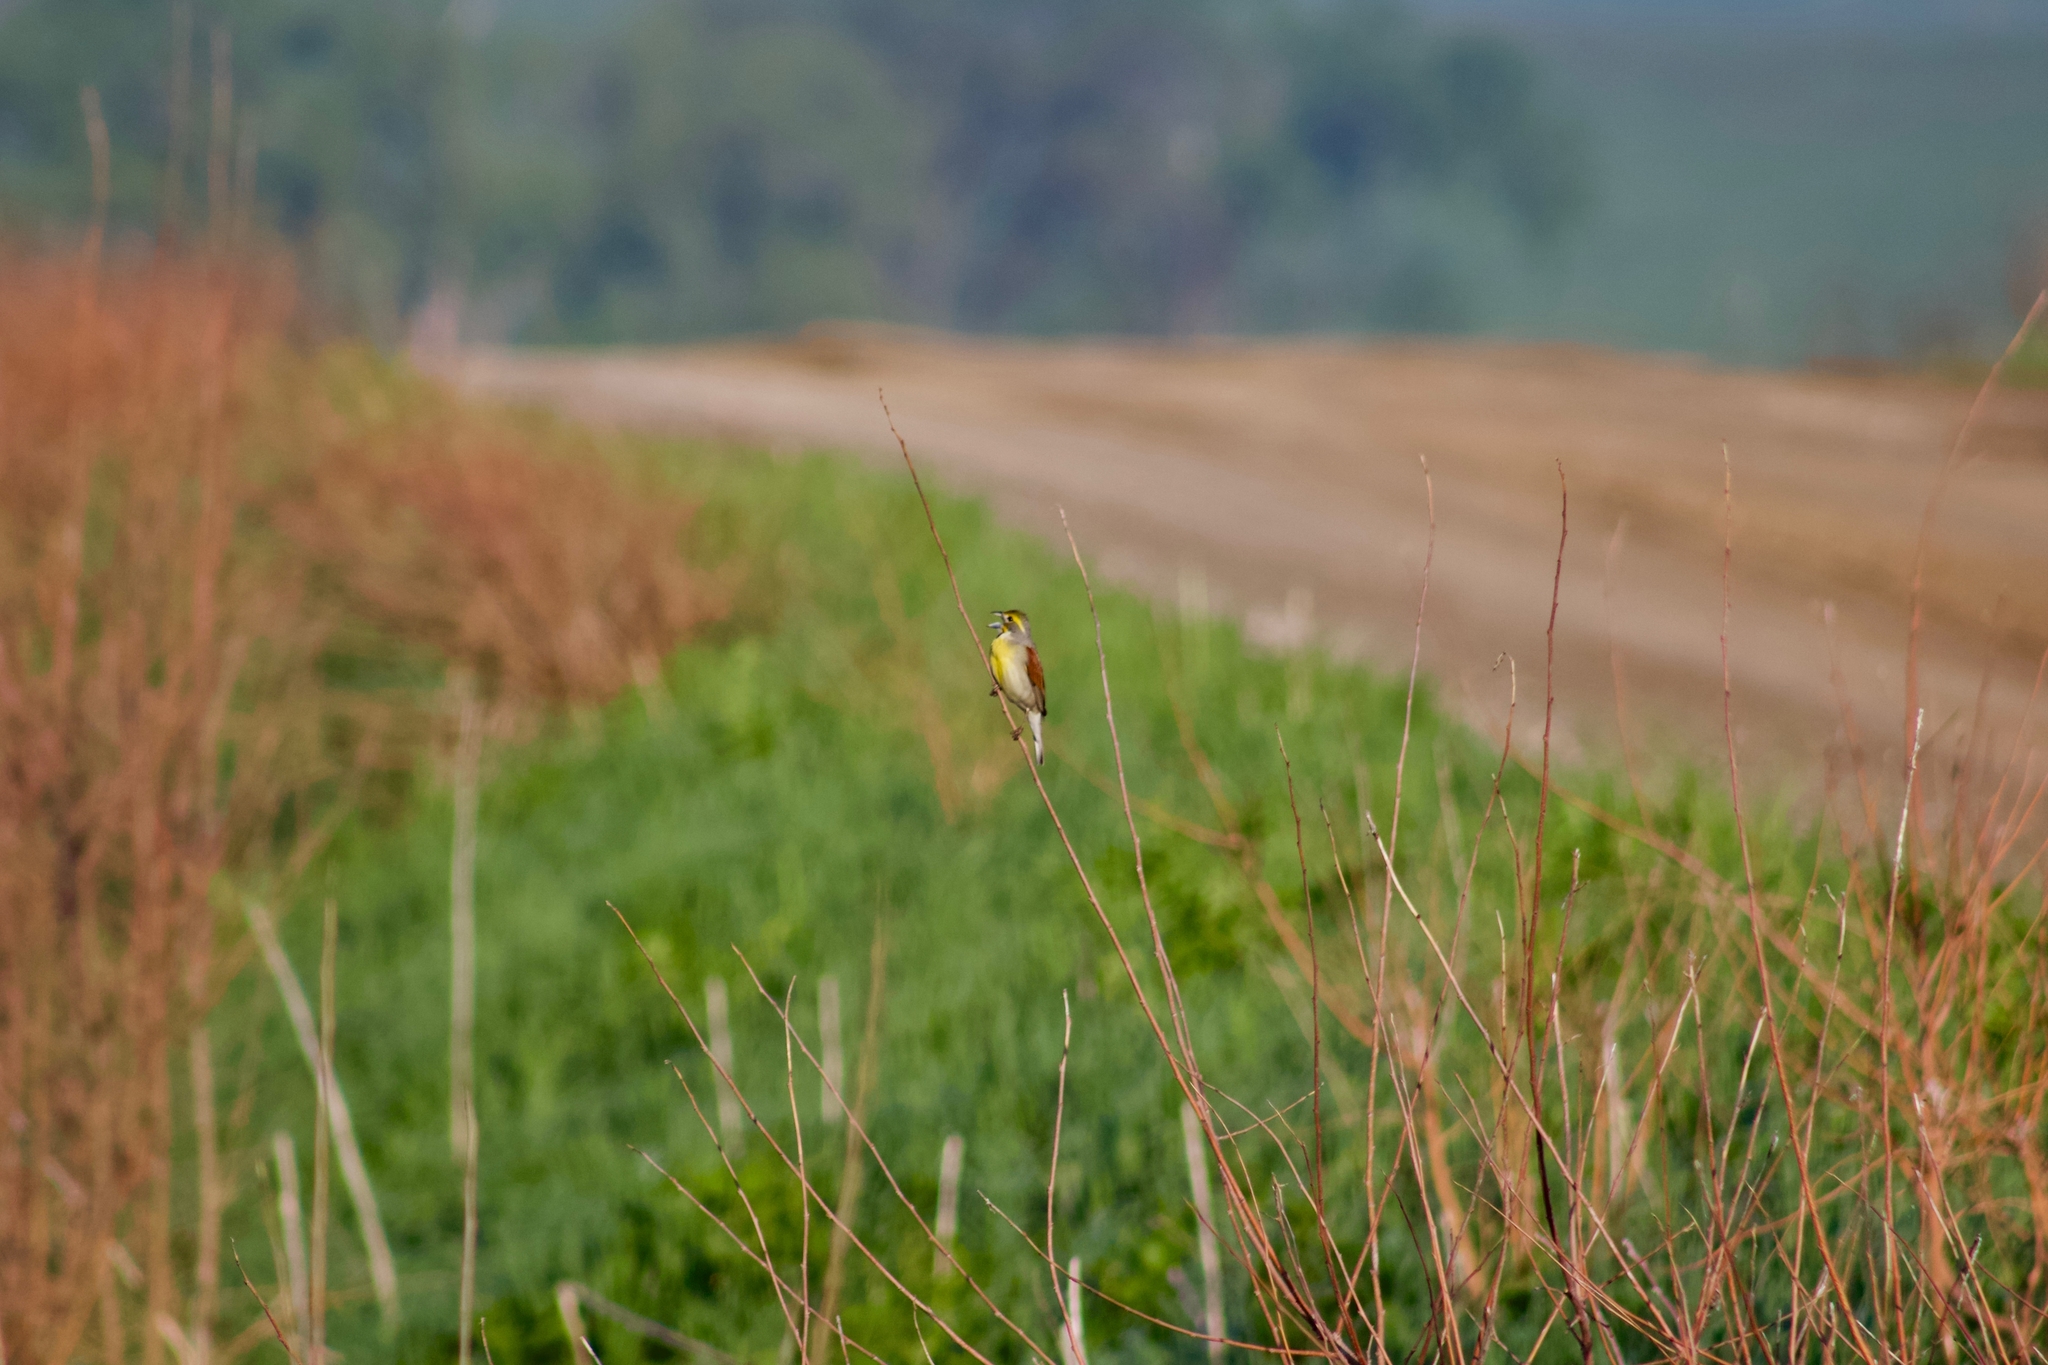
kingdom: Animalia
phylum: Chordata
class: Aves
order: Passeriformes
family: Cardinalidae
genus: Spiza
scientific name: Spiza americana
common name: Dickcissel
